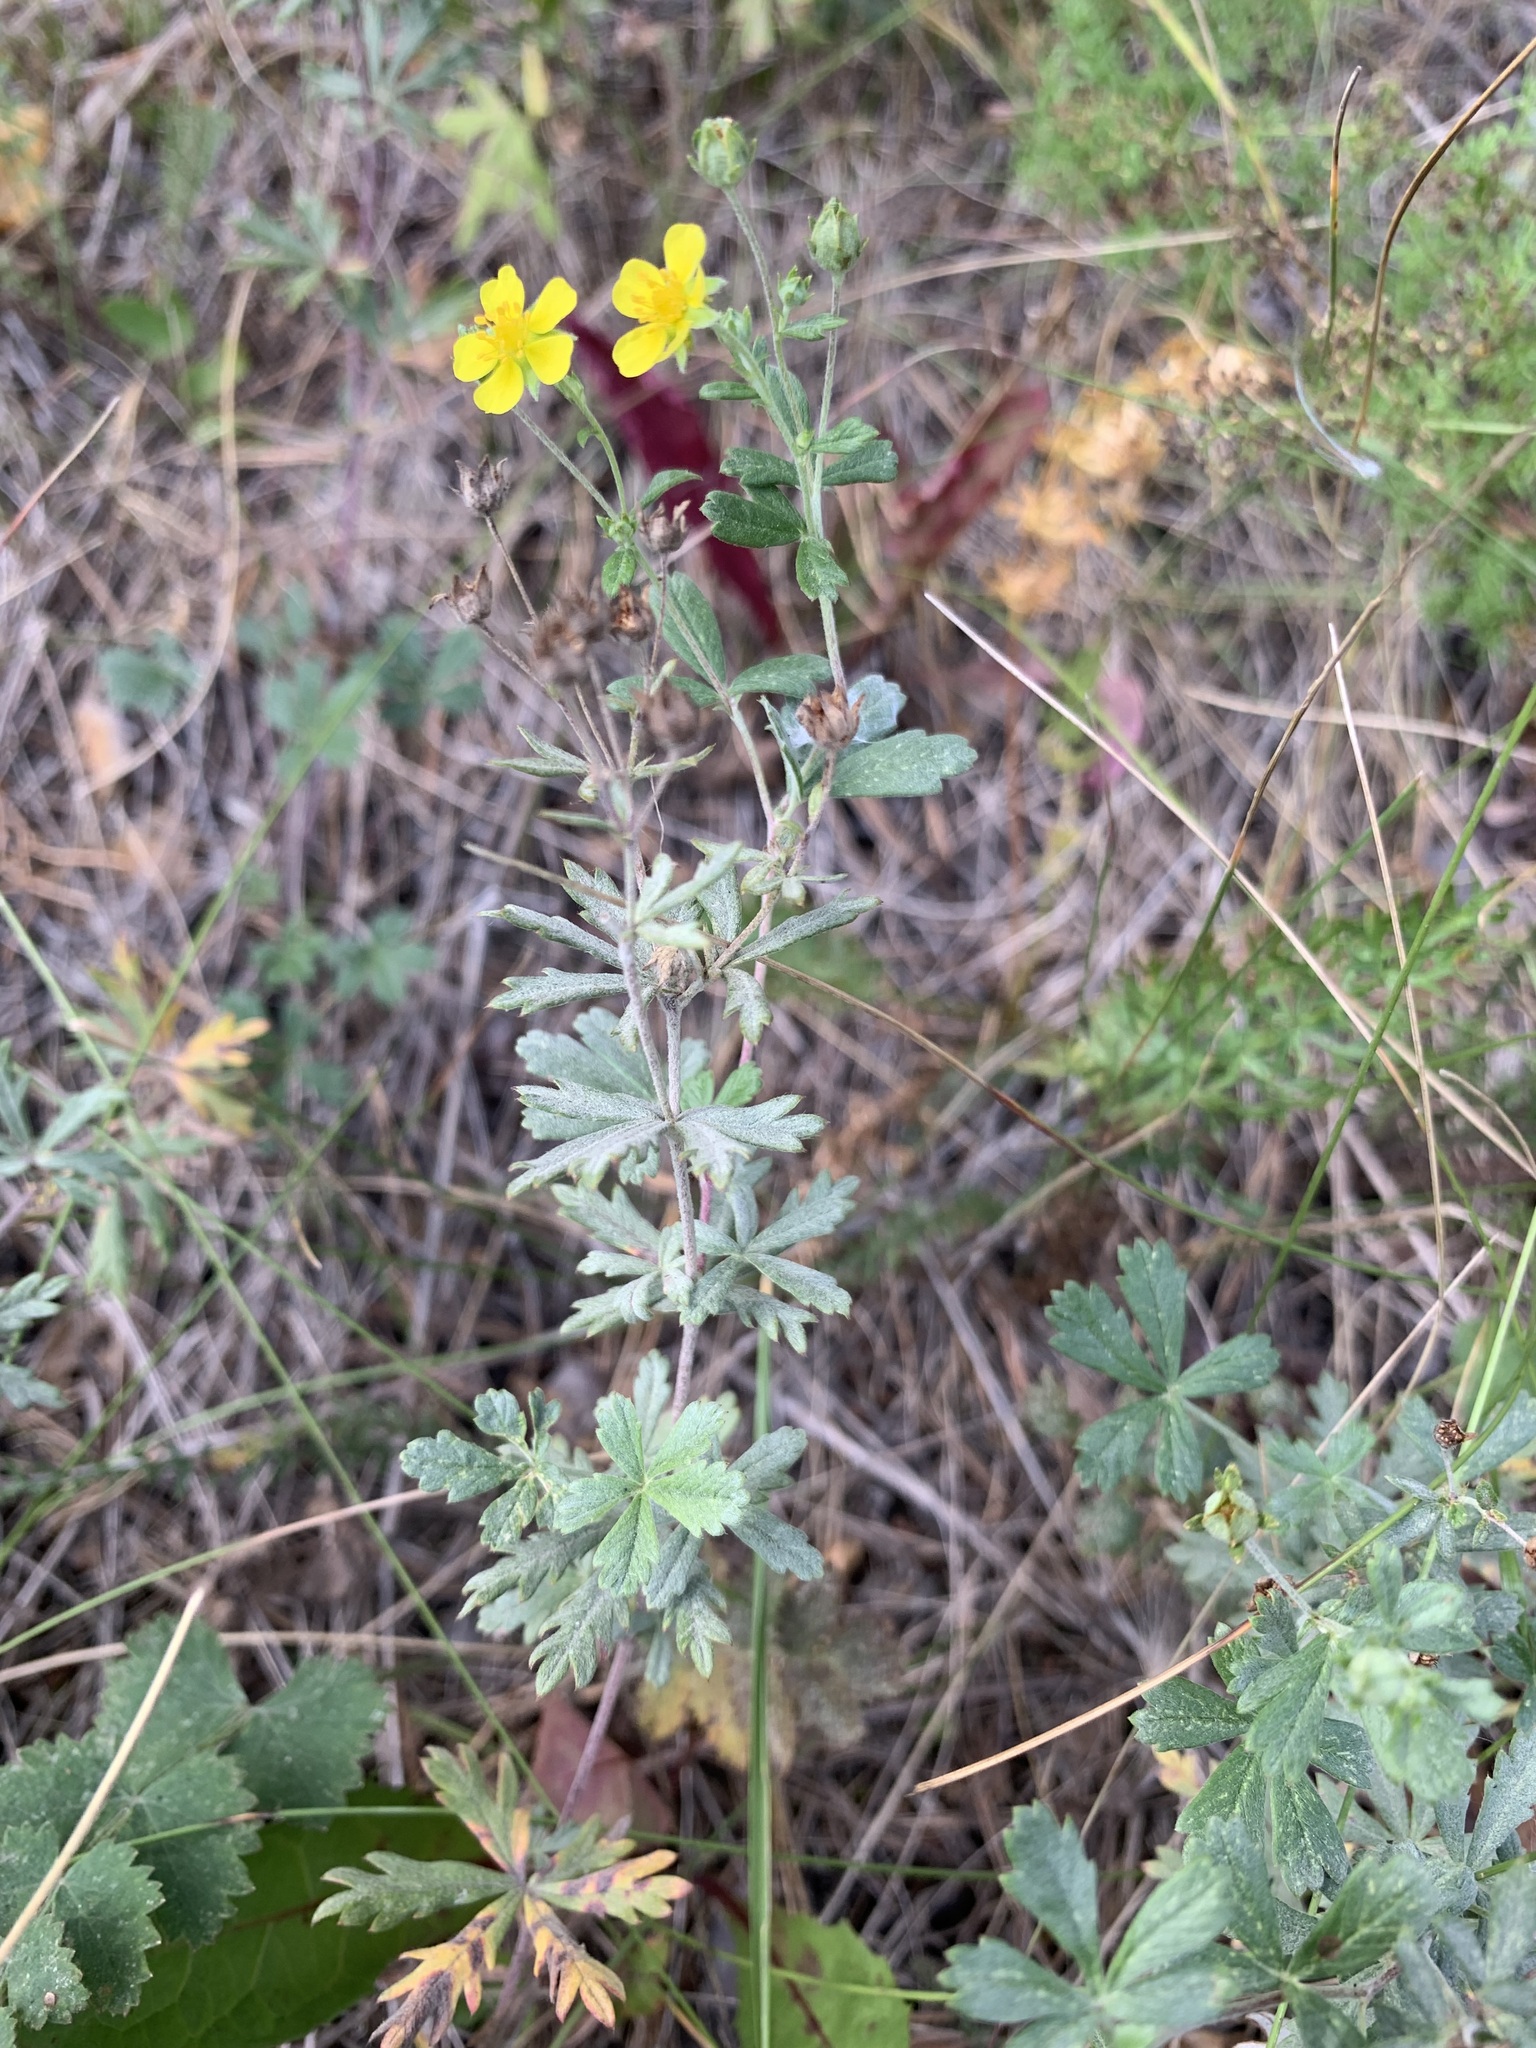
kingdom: Plantae
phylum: Tracheophyta
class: Magnoliopsida
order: Rosales
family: Rosaceae
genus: Potentilla
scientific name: Potentilla argentea
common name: Hoary cinquefoil
